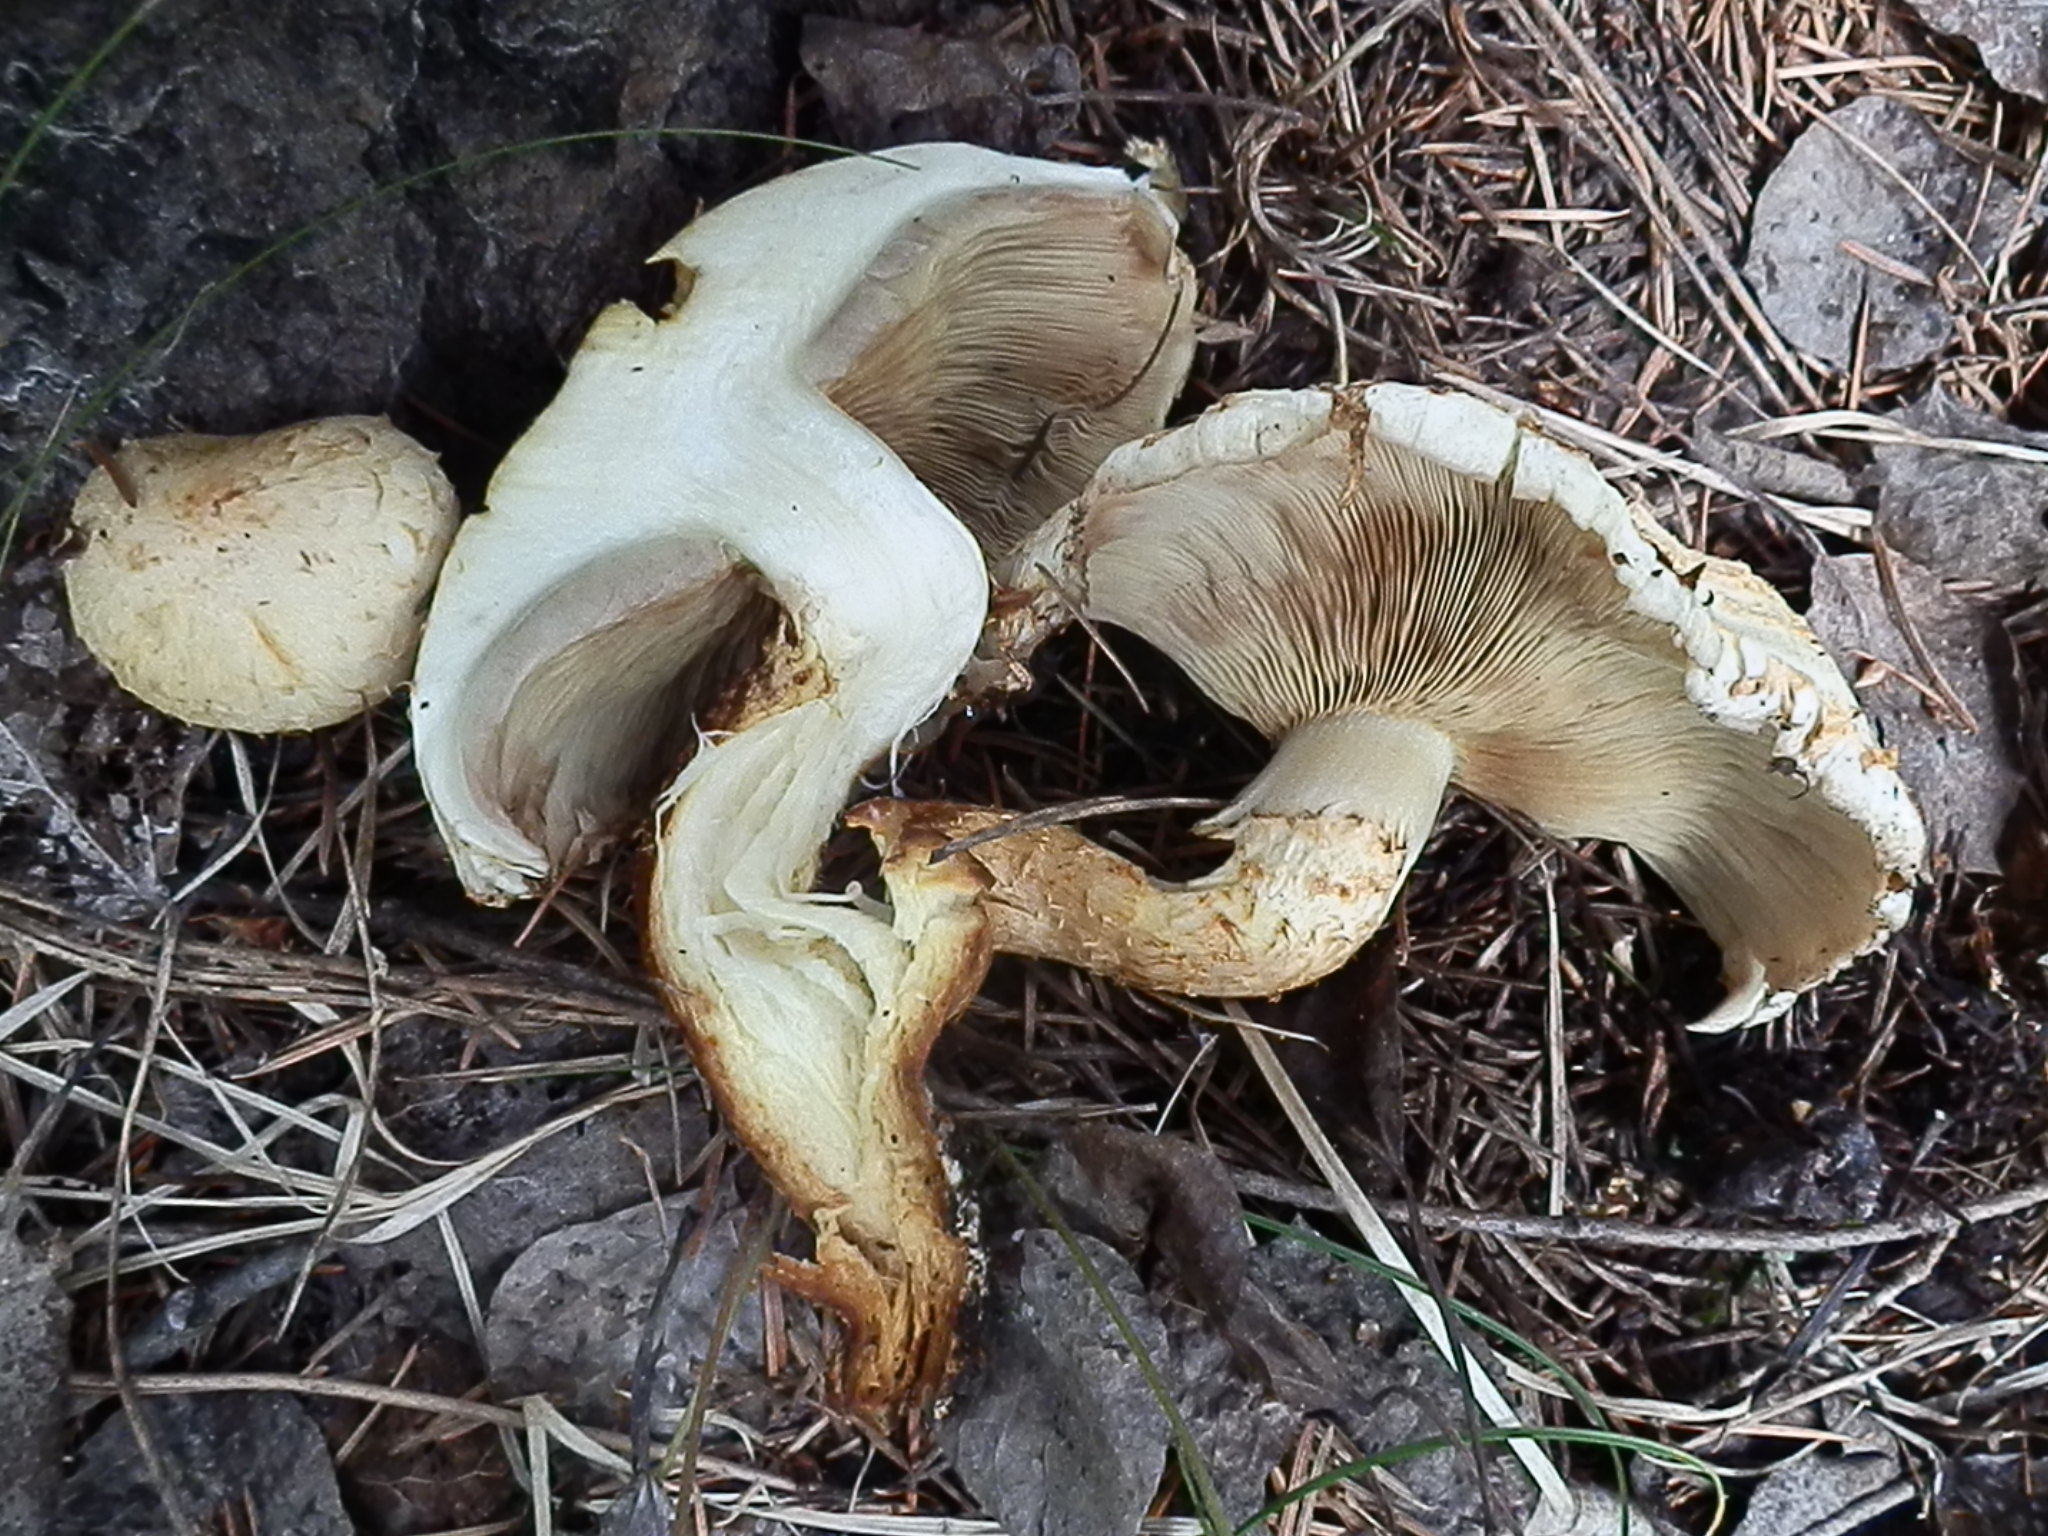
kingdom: Fungi
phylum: Basidiomycota
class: Agaricomycetes
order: Agaricales
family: Strophariaceae
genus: Pholiota
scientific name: Pholiota squarrosa
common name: Shaggy pholiota
